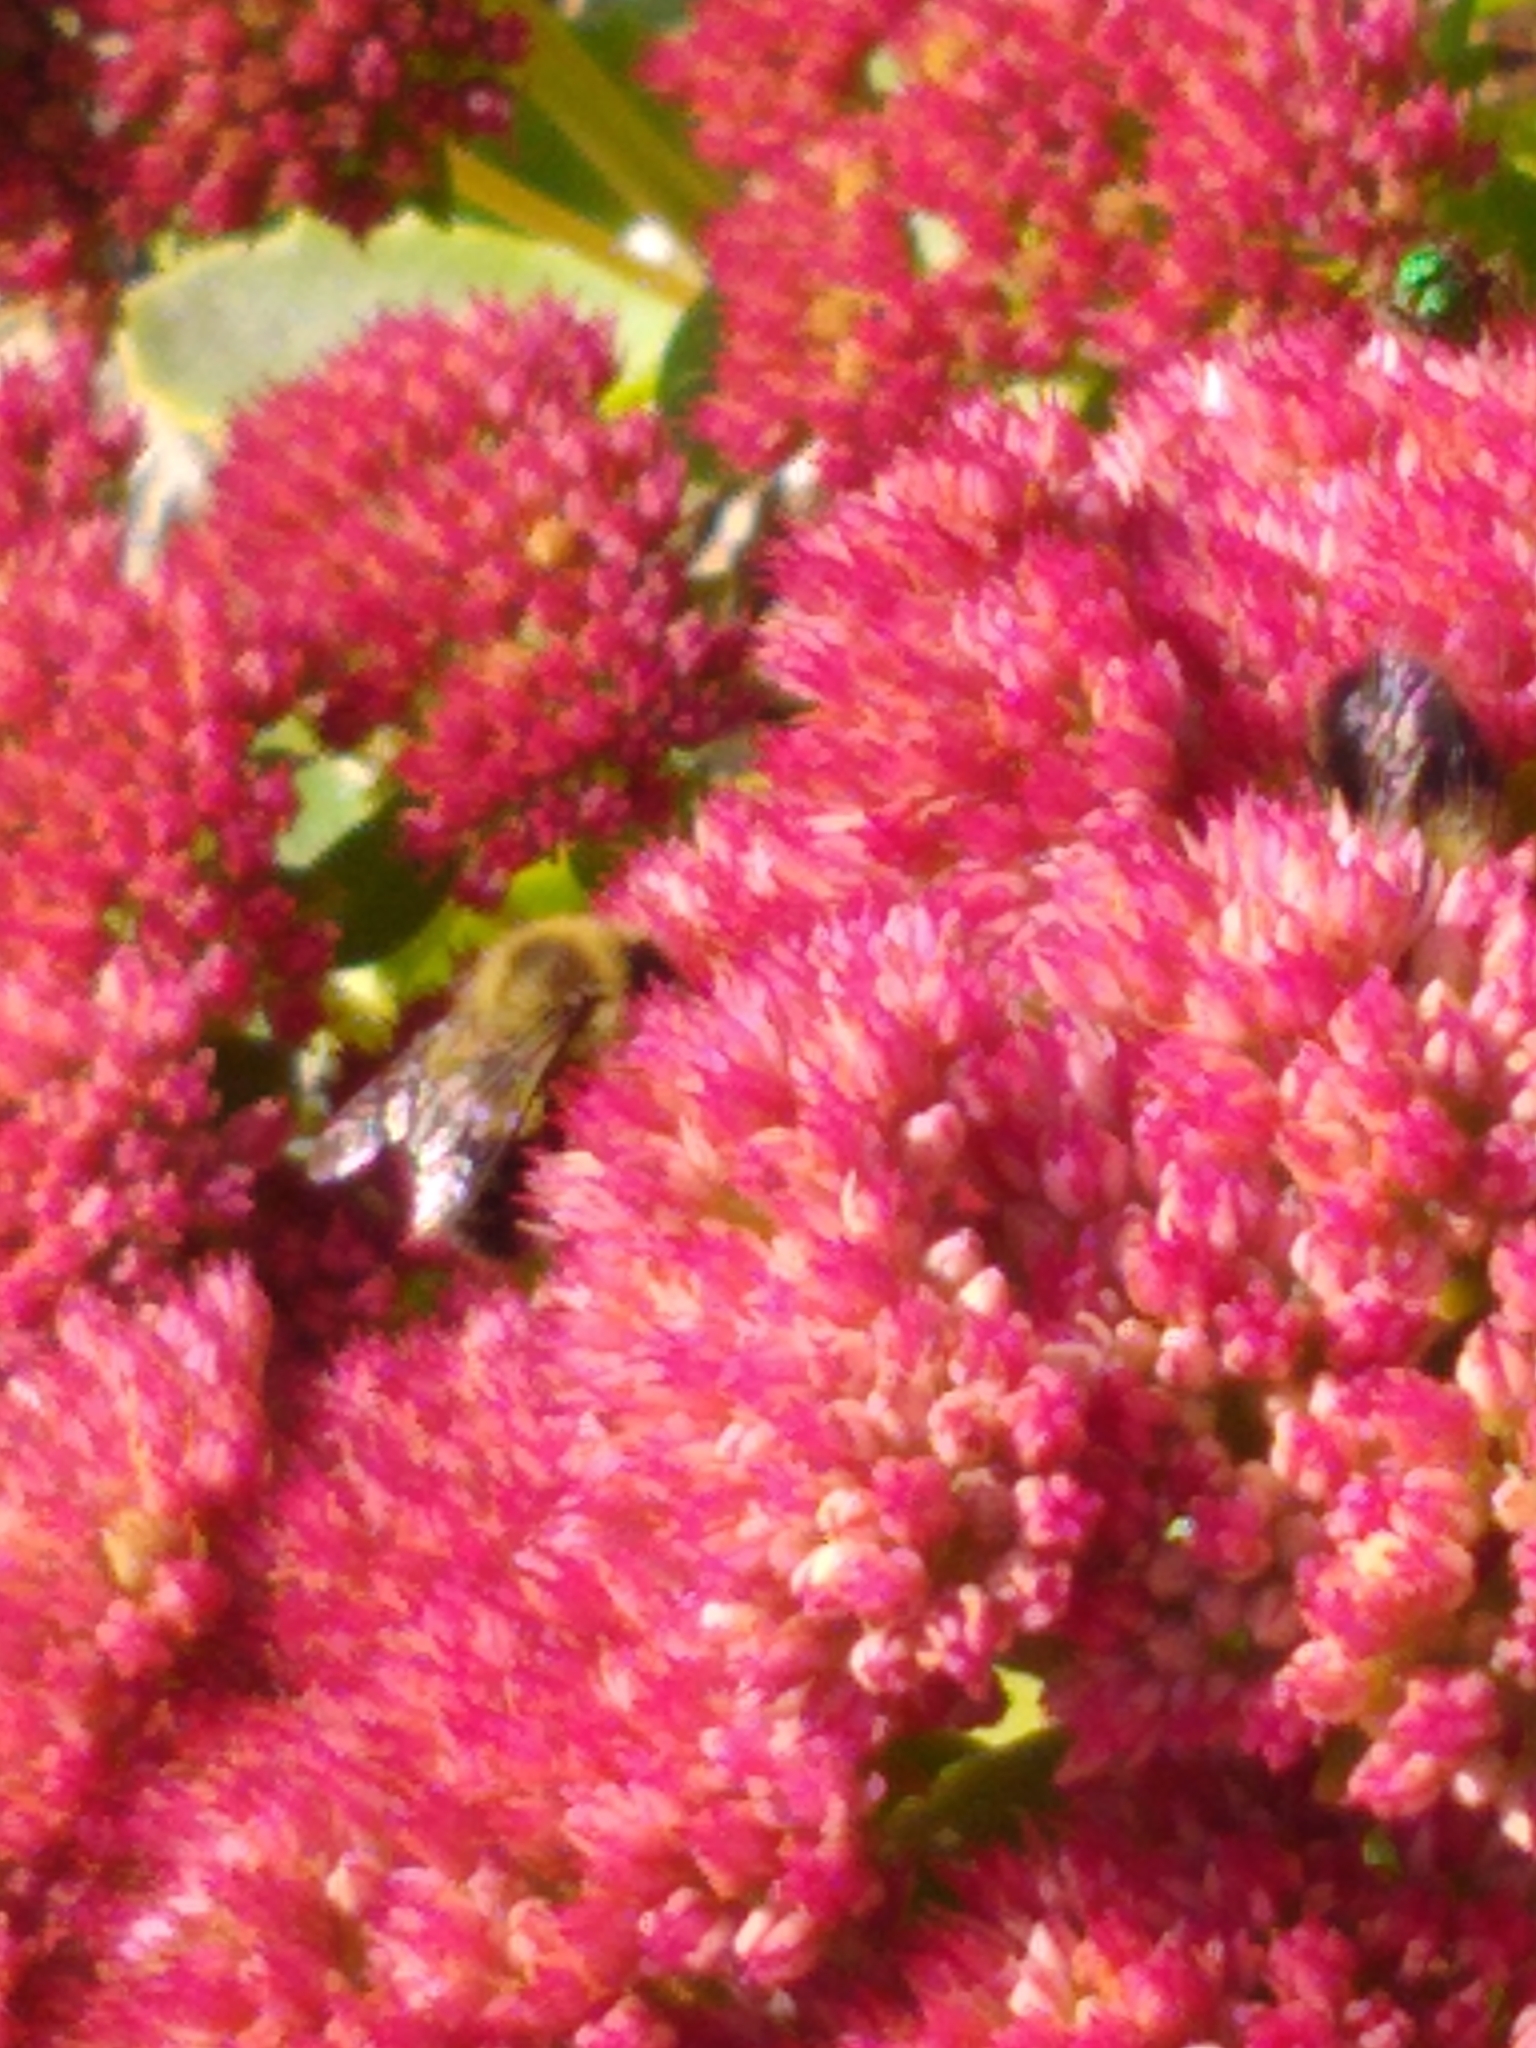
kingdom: Animalia
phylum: Arthropoda
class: Insecta
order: Hymenoptera
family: Apidae
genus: Bombus
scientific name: Bombus impatiens
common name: Common eastern bumble bee
